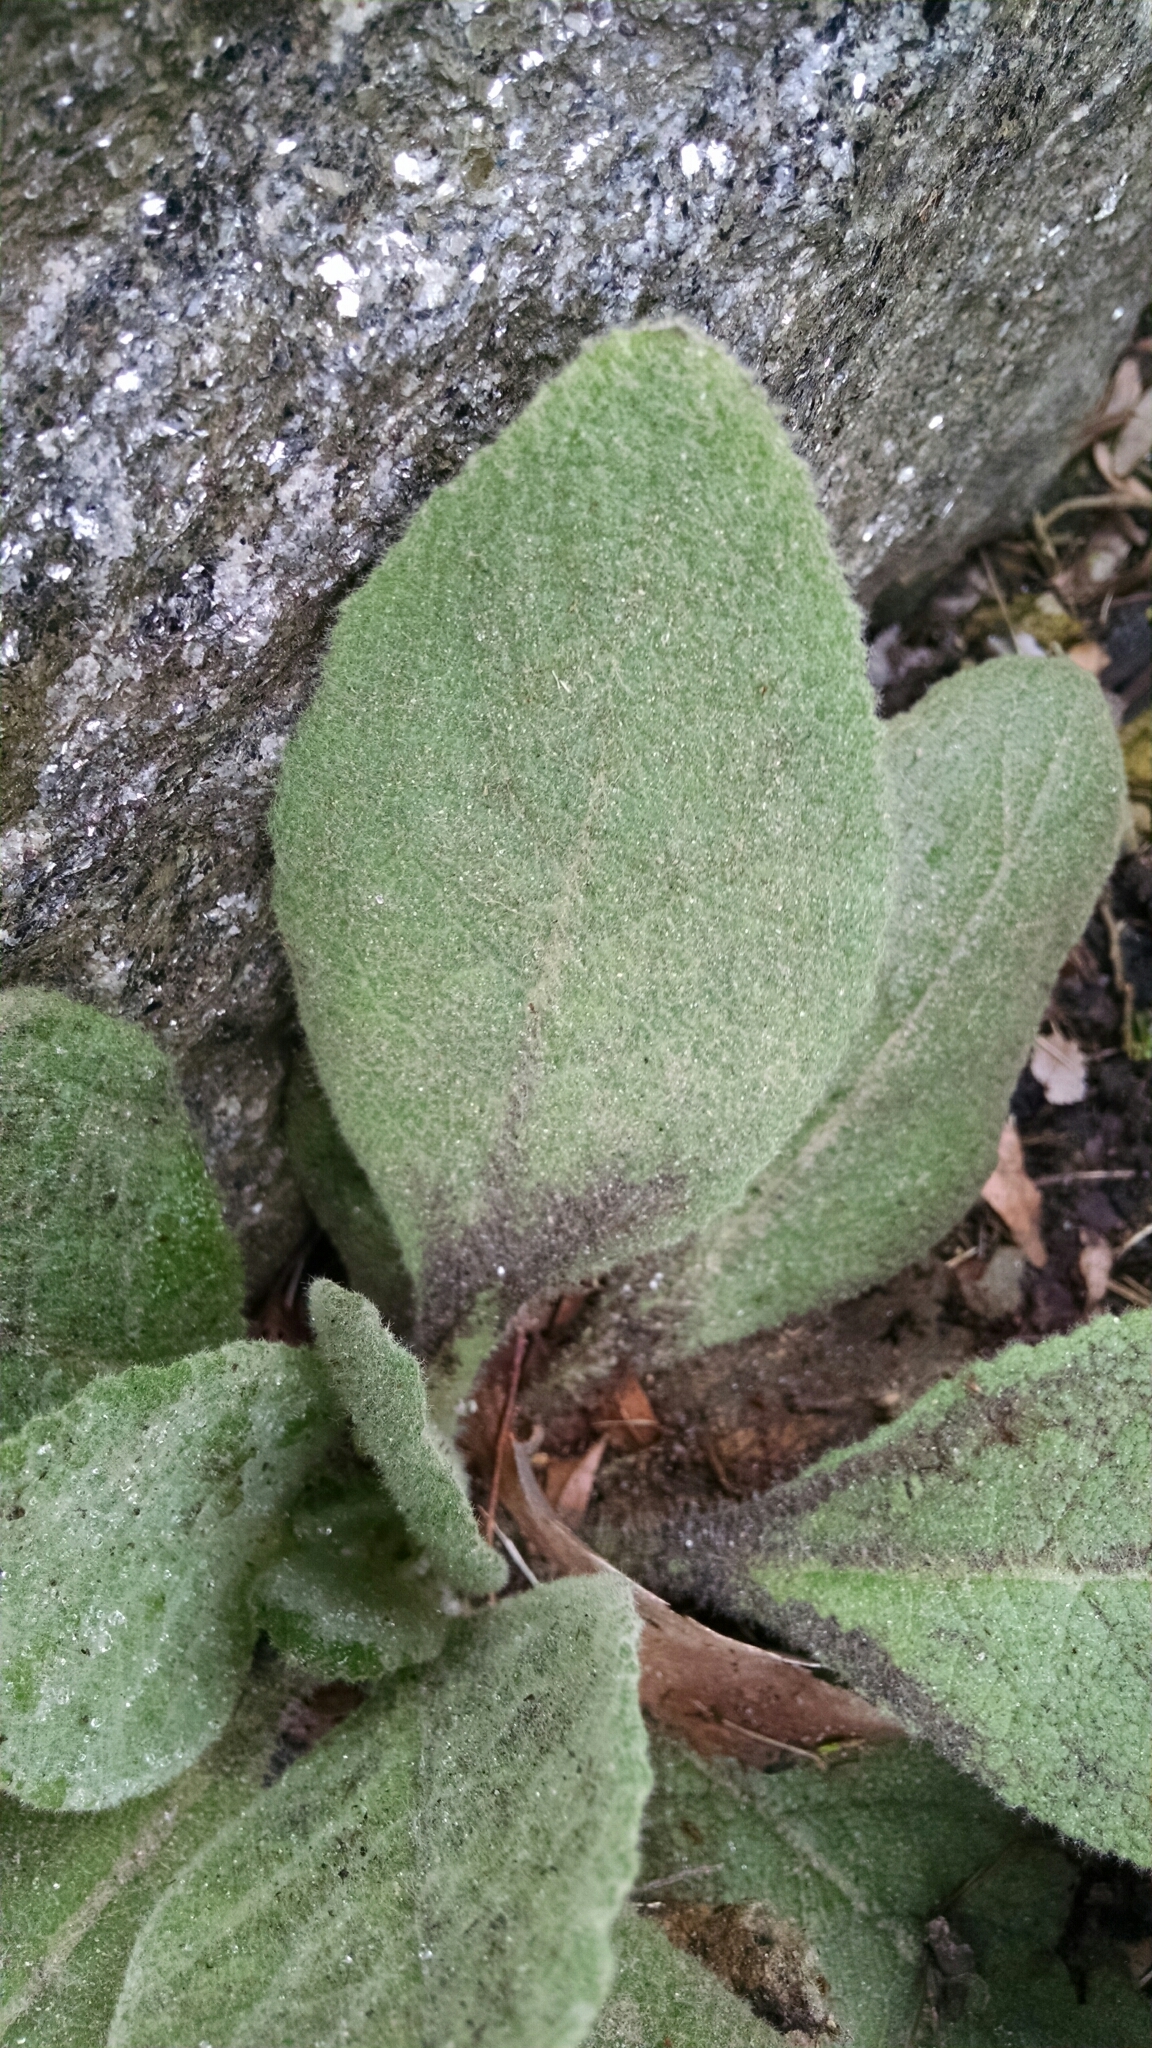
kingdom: Plantae
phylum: Tracheophyta
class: Magnoliopsida
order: Lamiales
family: Scrophulariaceae
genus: Verbascum
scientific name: Verbascum thapsus
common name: Common mullein
